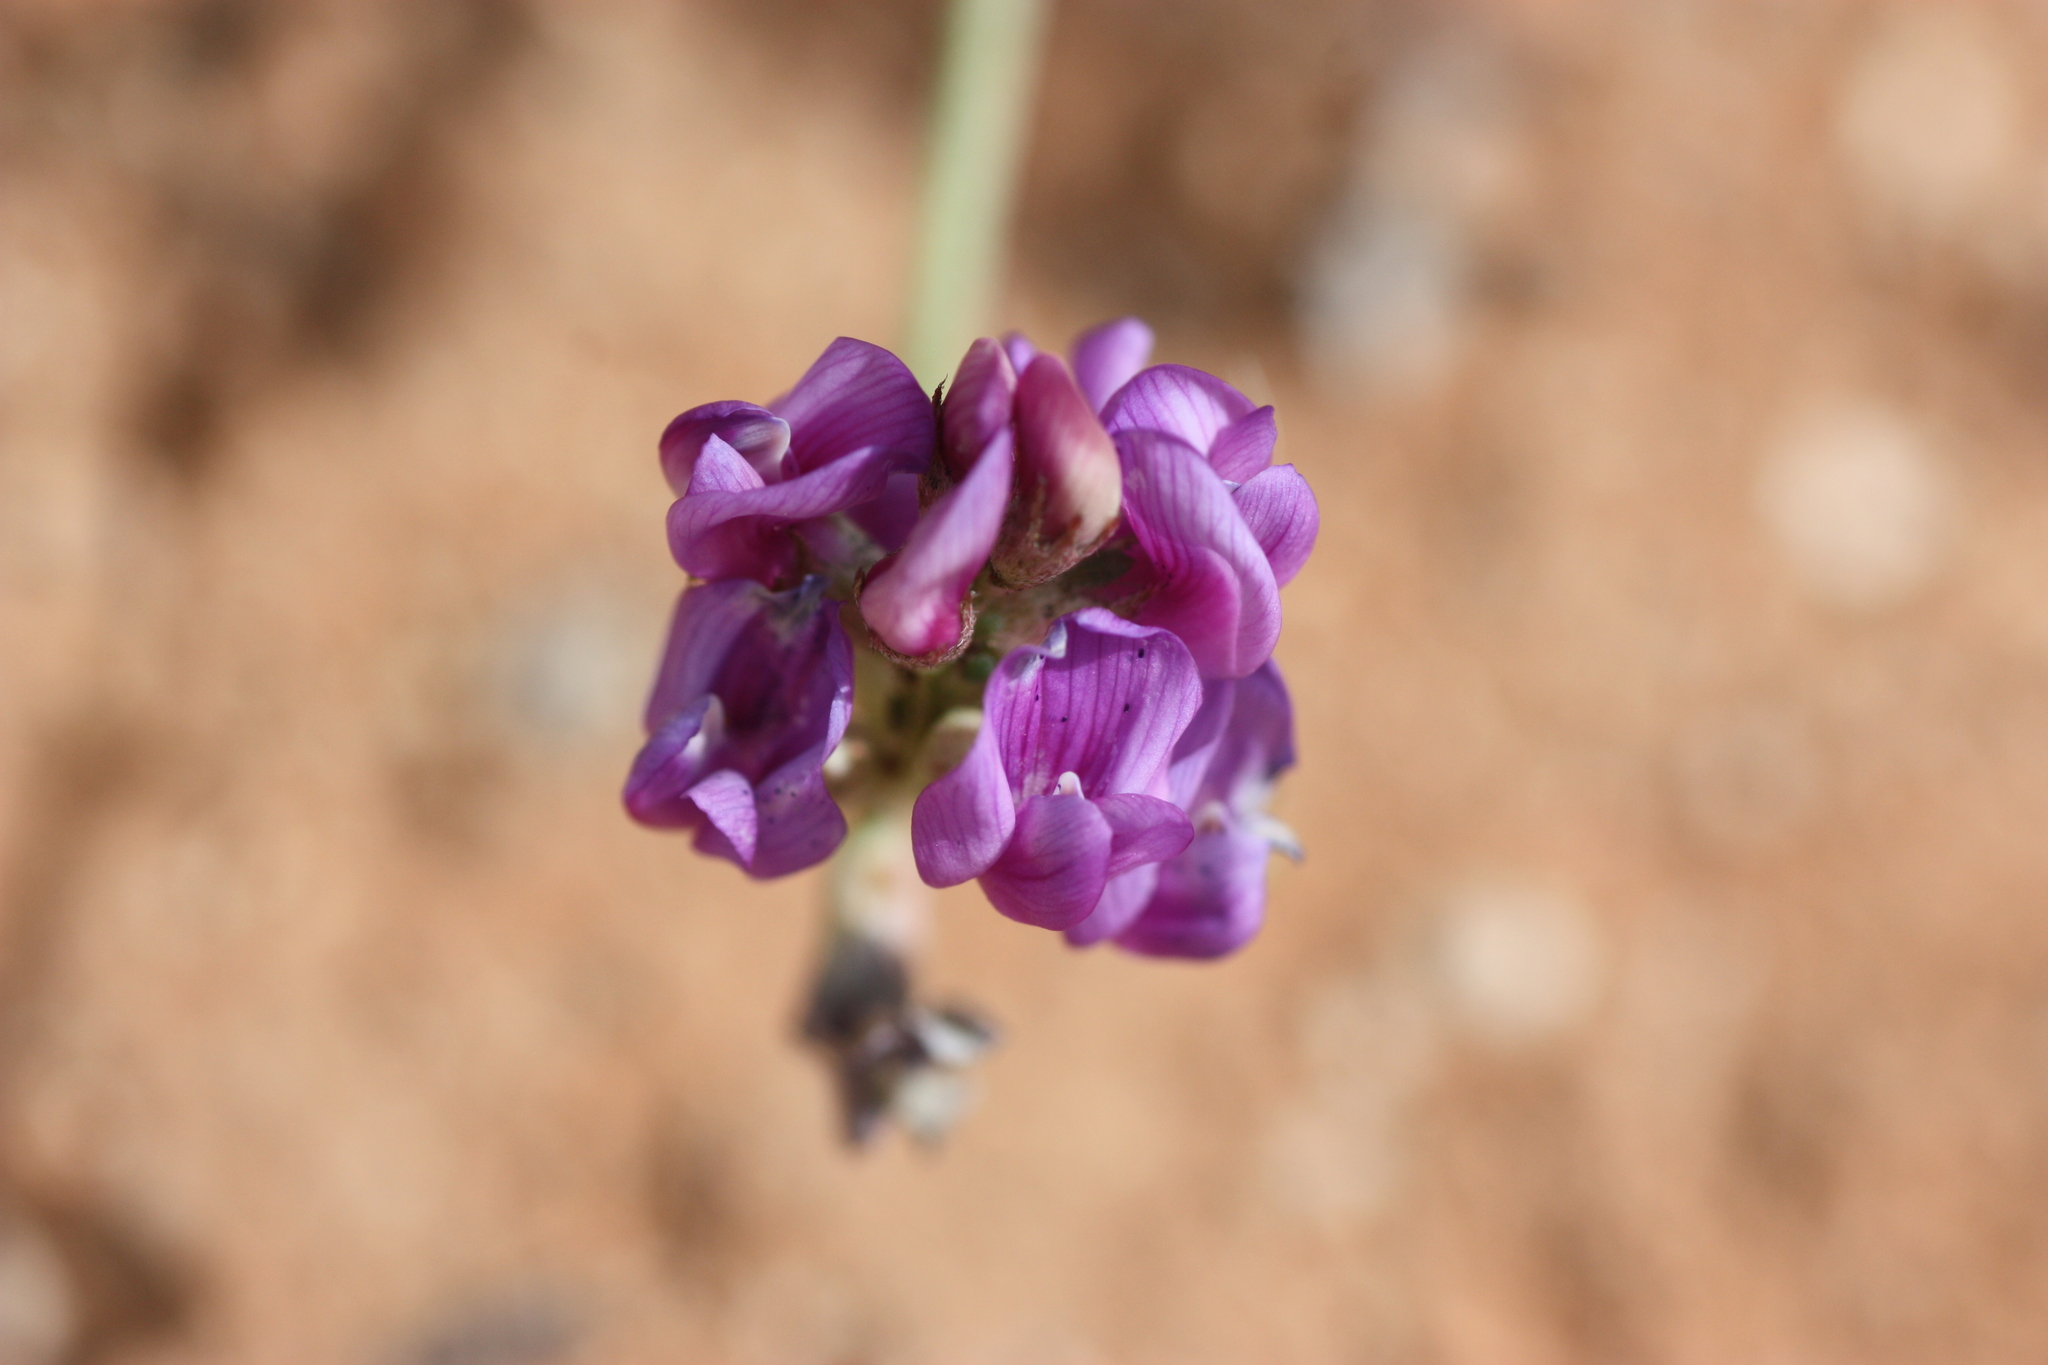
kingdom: Plantae
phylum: Tracheophyta
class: Magnoliopsida
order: Fabales
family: Fabaceae
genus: Astragalus
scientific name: Astragalus allochrous
